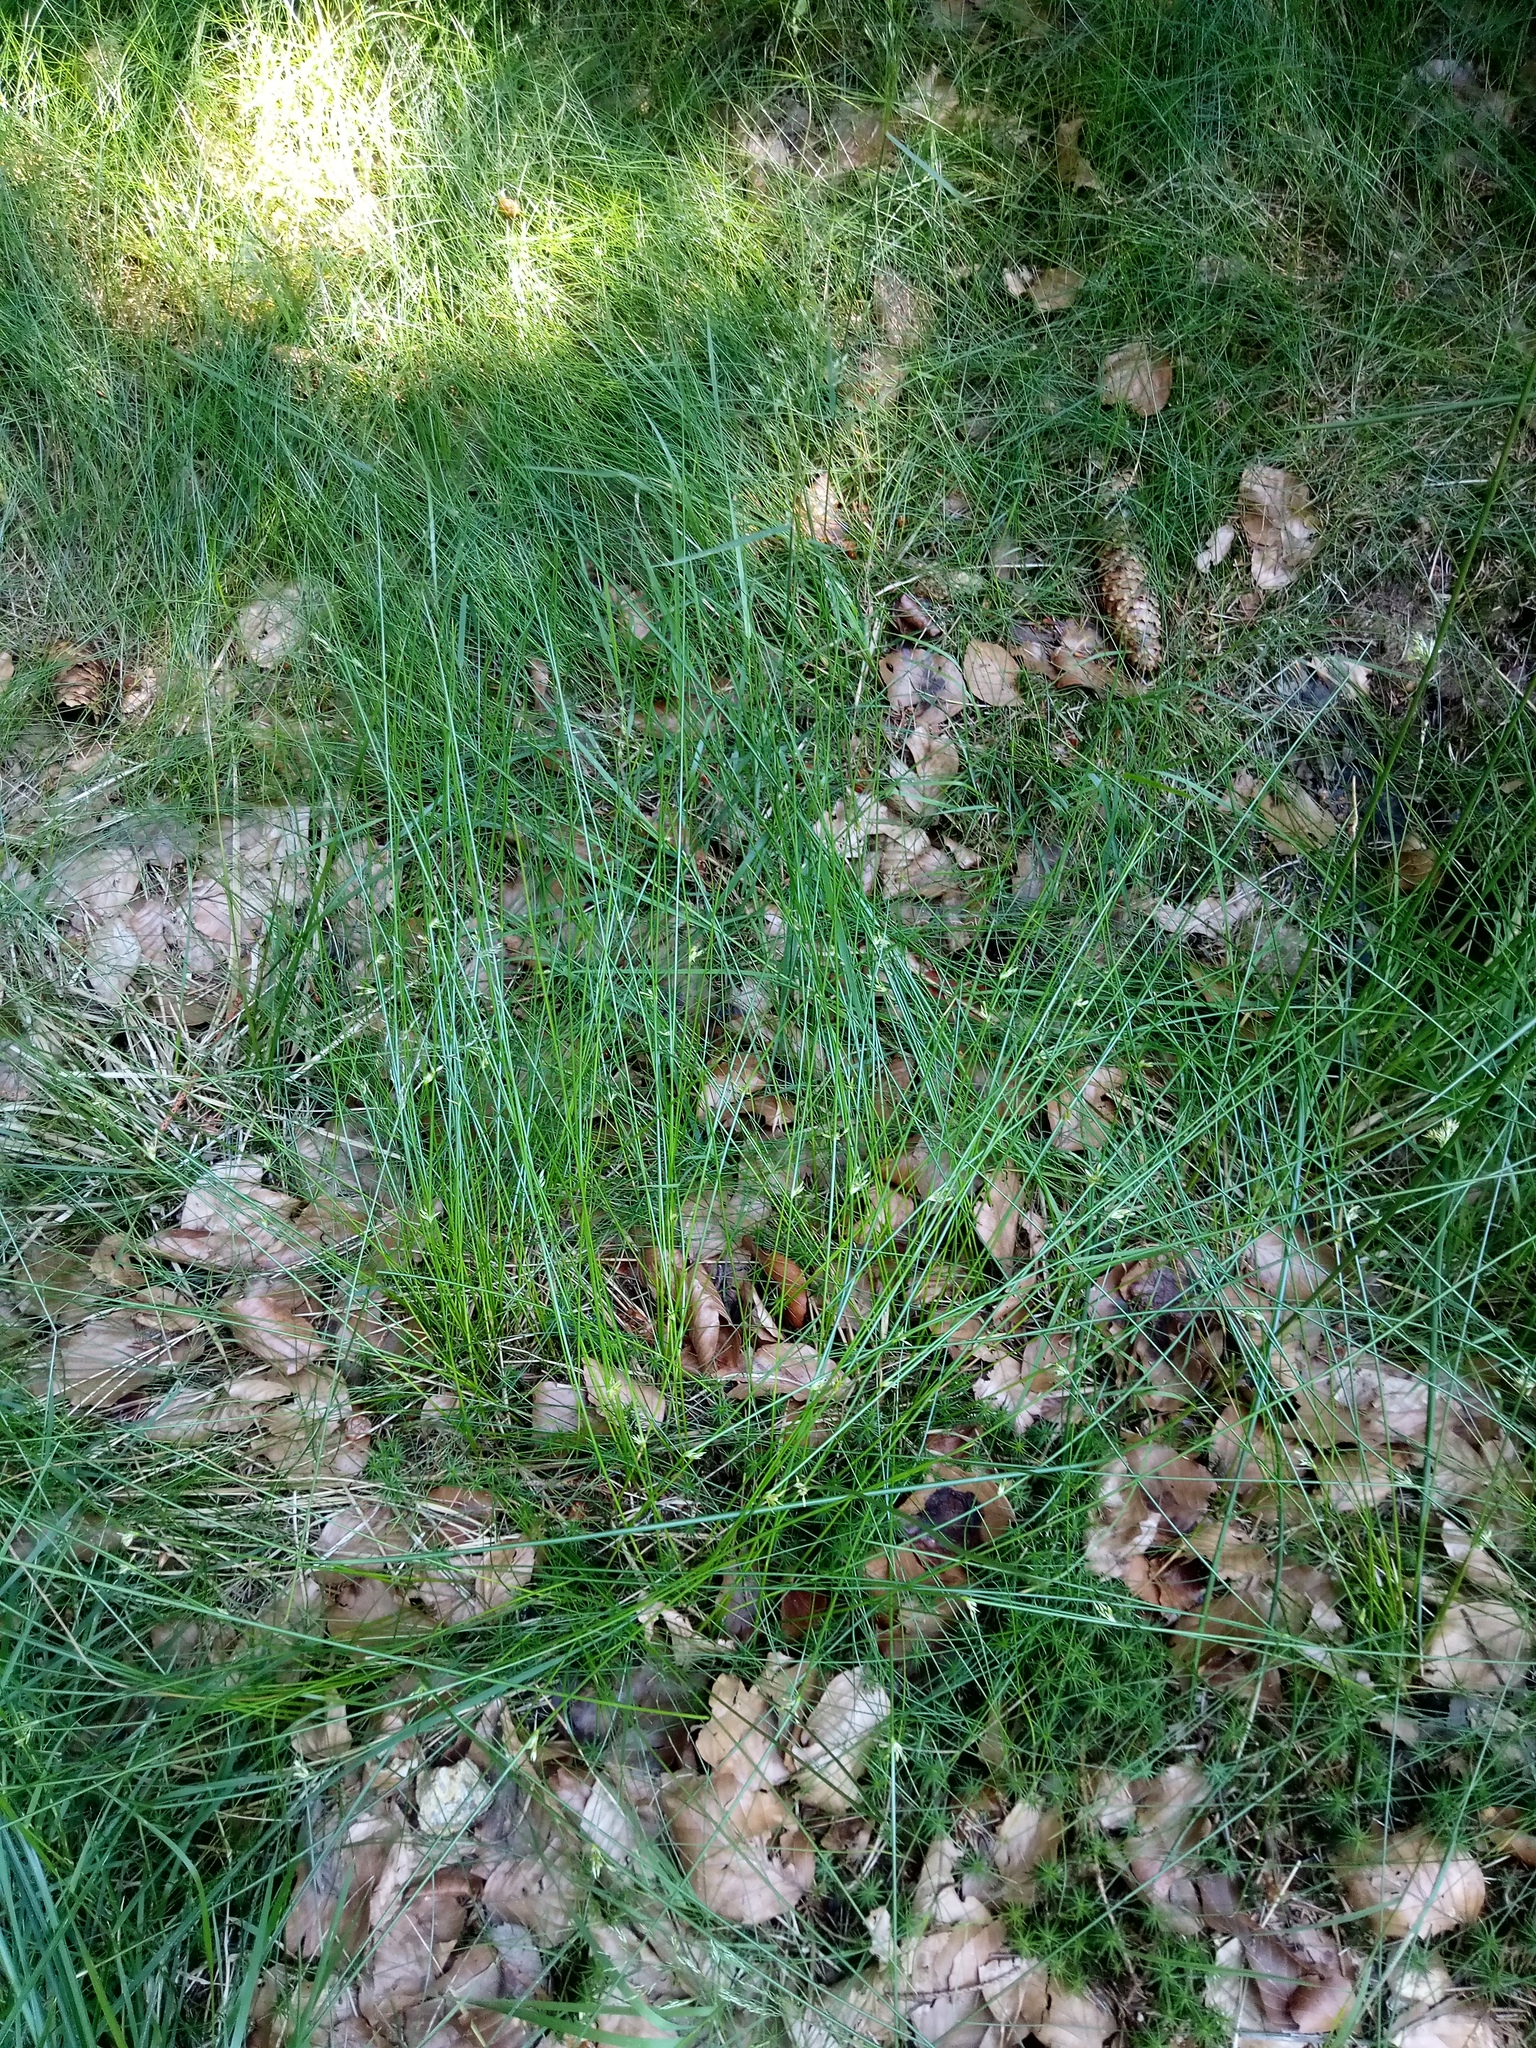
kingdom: Plantae
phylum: Tracheophyta
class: Liliopsida
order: Poales
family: Juncaceae
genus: Juncus
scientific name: Juncus filiformis
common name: Thread rush
